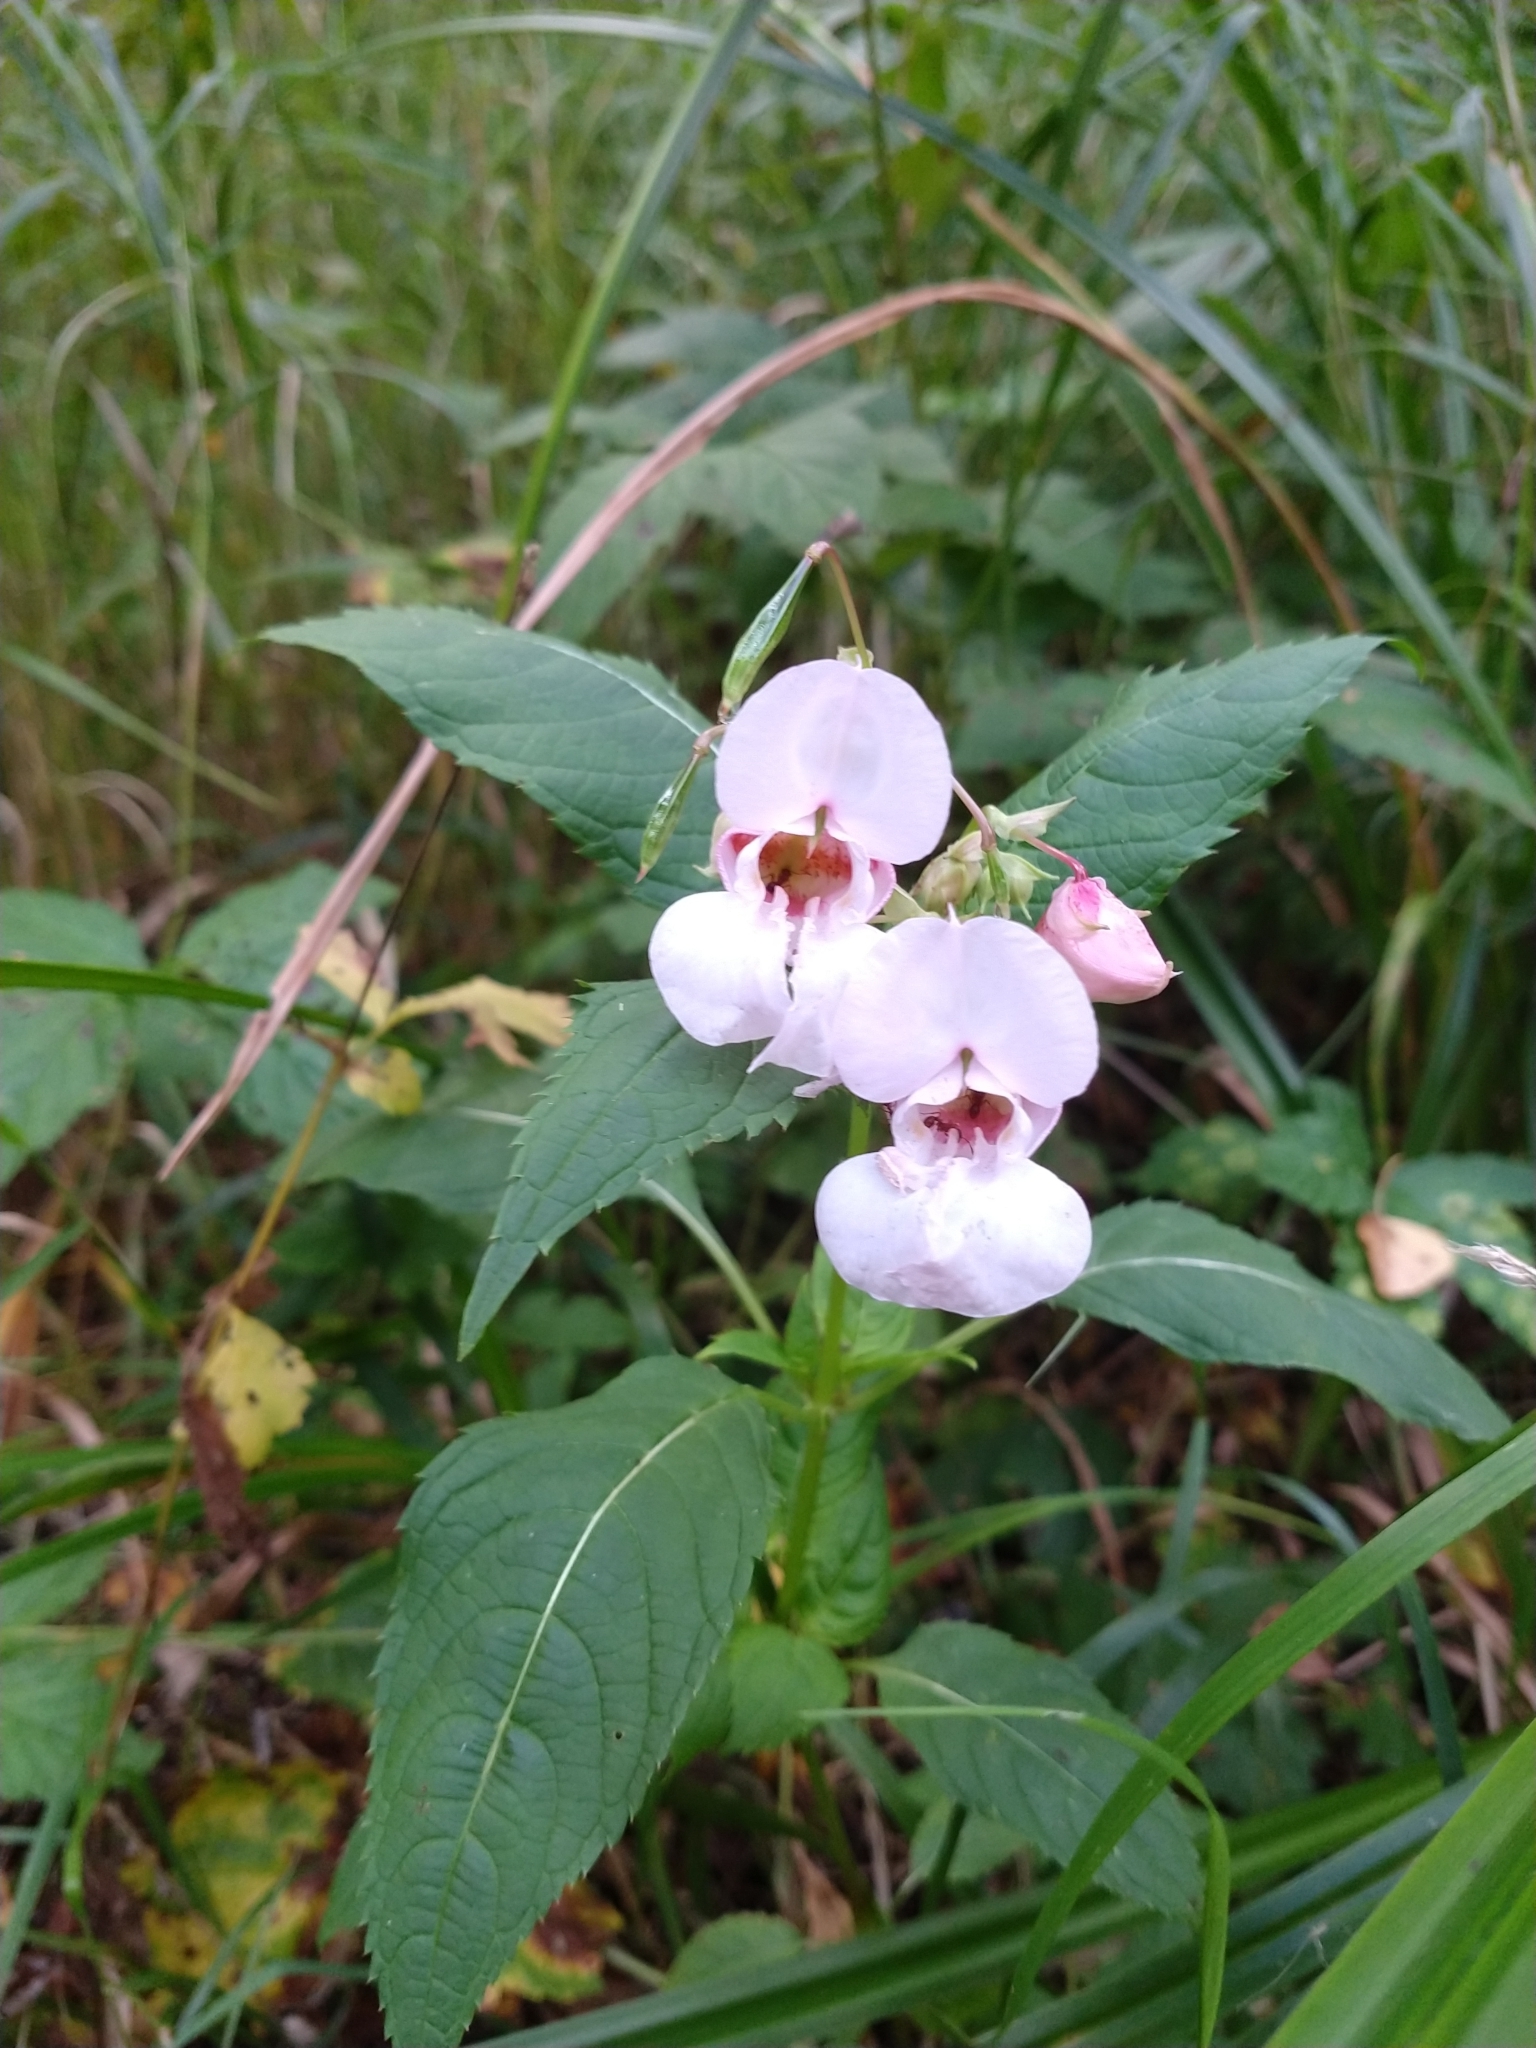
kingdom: Plantae
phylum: Tracheophyta
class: Magnoliopsida
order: Ericales
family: Balsaminaceae
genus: Impatiens
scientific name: Impatiens glandulifera
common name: Himalayan balsam
